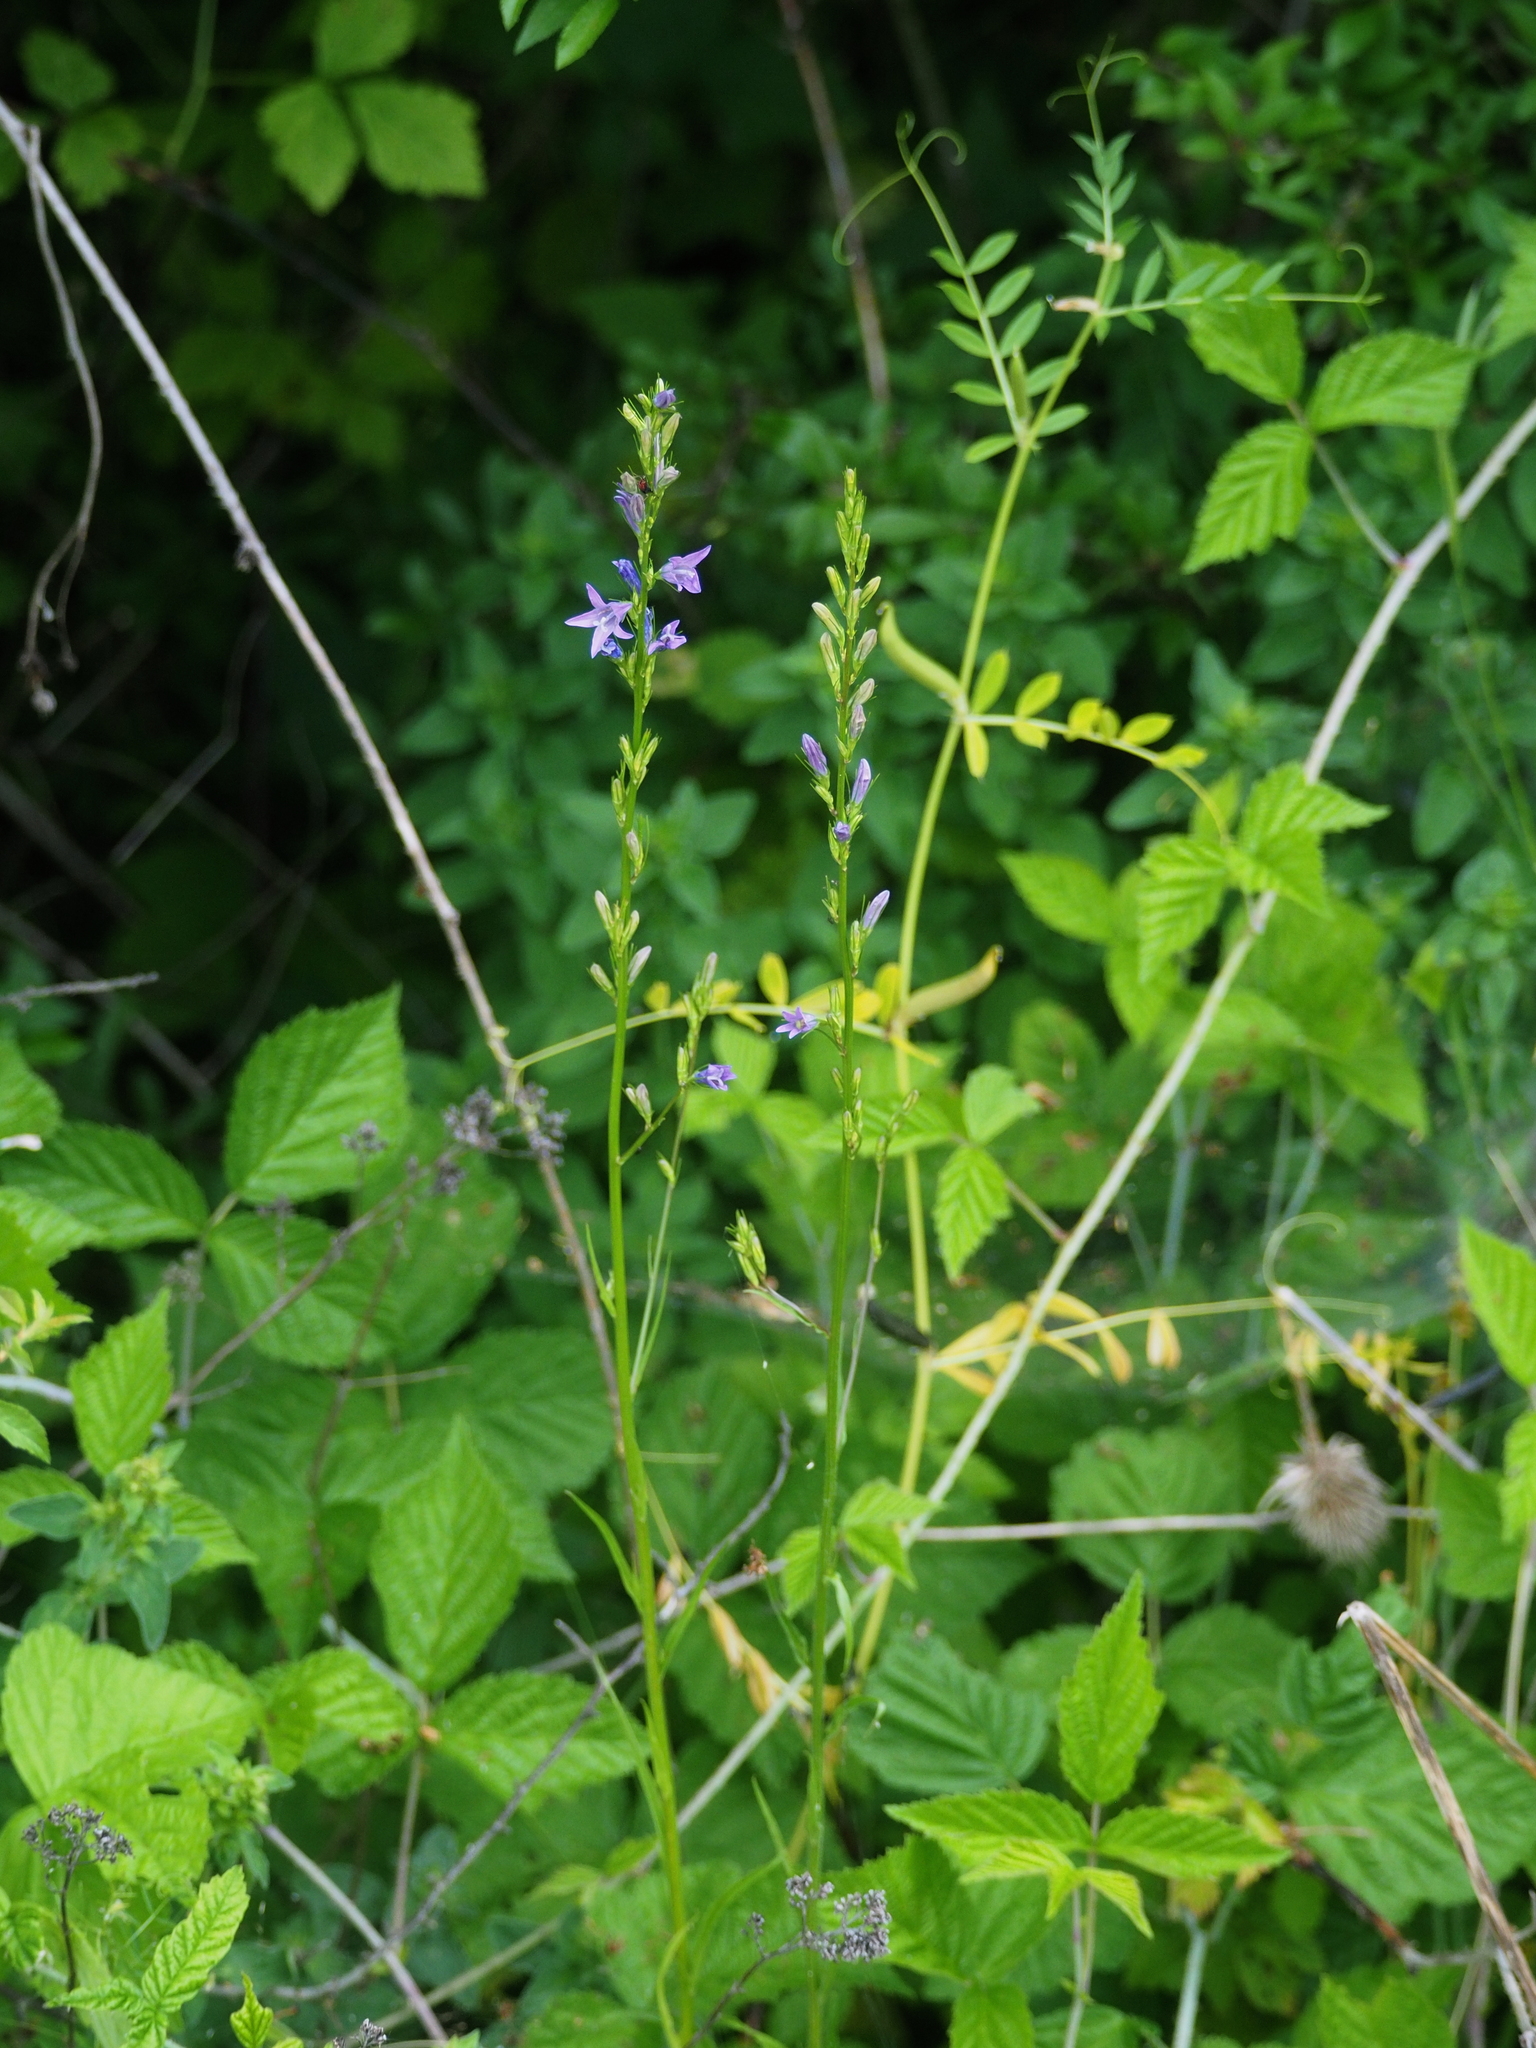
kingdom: Plantae
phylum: Tracheophyta
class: Magnoliopsida
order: Asterales
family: Campanulaceae
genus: Campanula
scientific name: Campanula rapunculus
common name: Rampion bellflower
